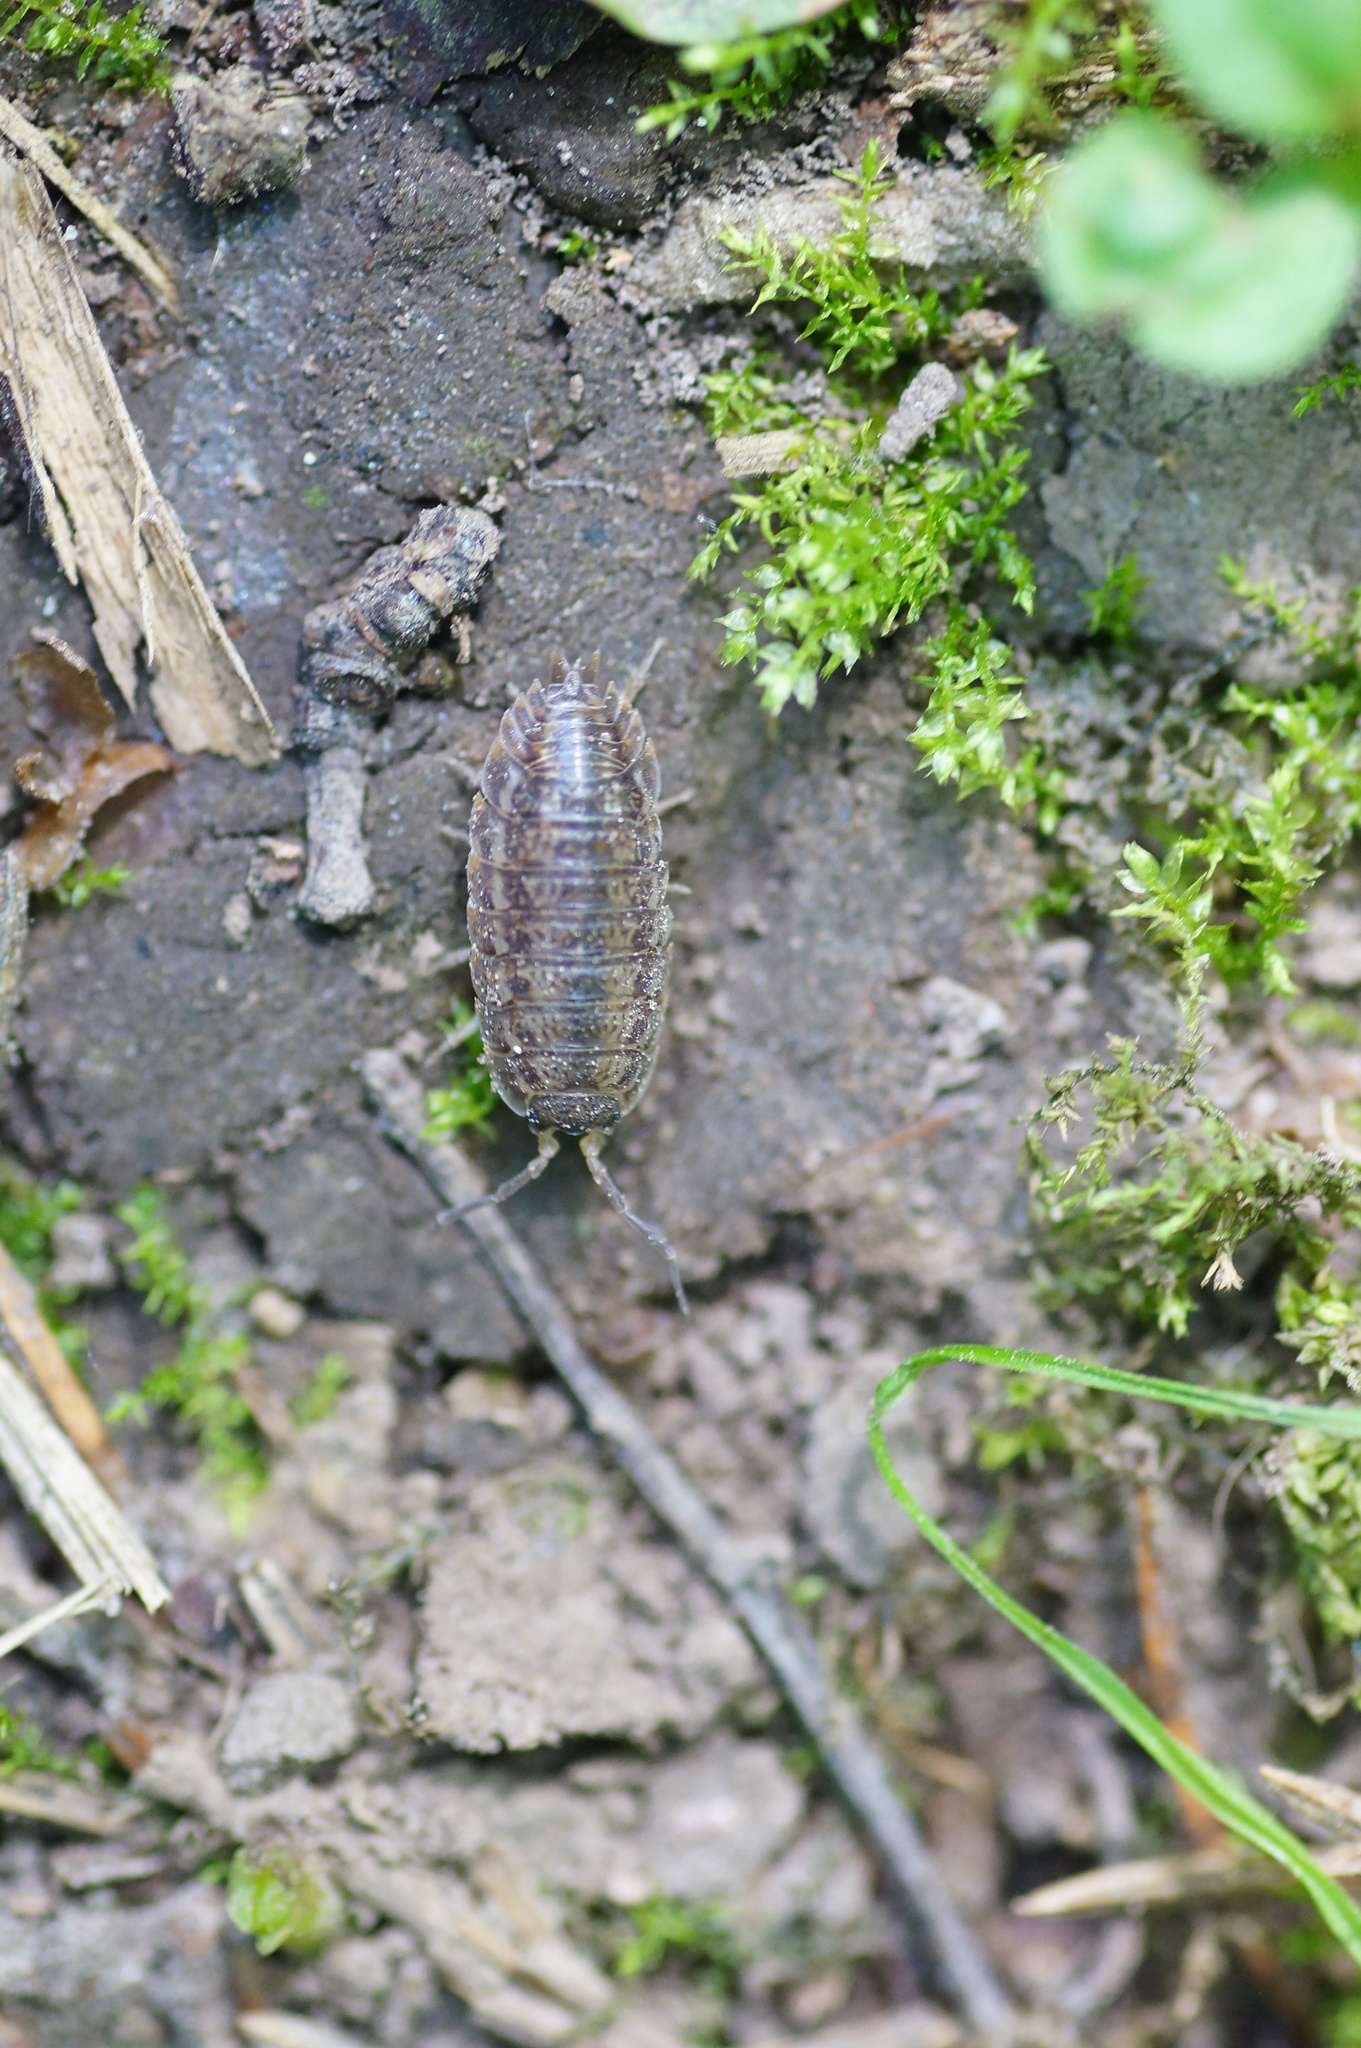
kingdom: Animalia
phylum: Arthropoda
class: Malacostraca
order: Isopoda
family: Trachelipodidae
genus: Trachelipus
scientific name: Trachelipus rathkii
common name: Isopod
